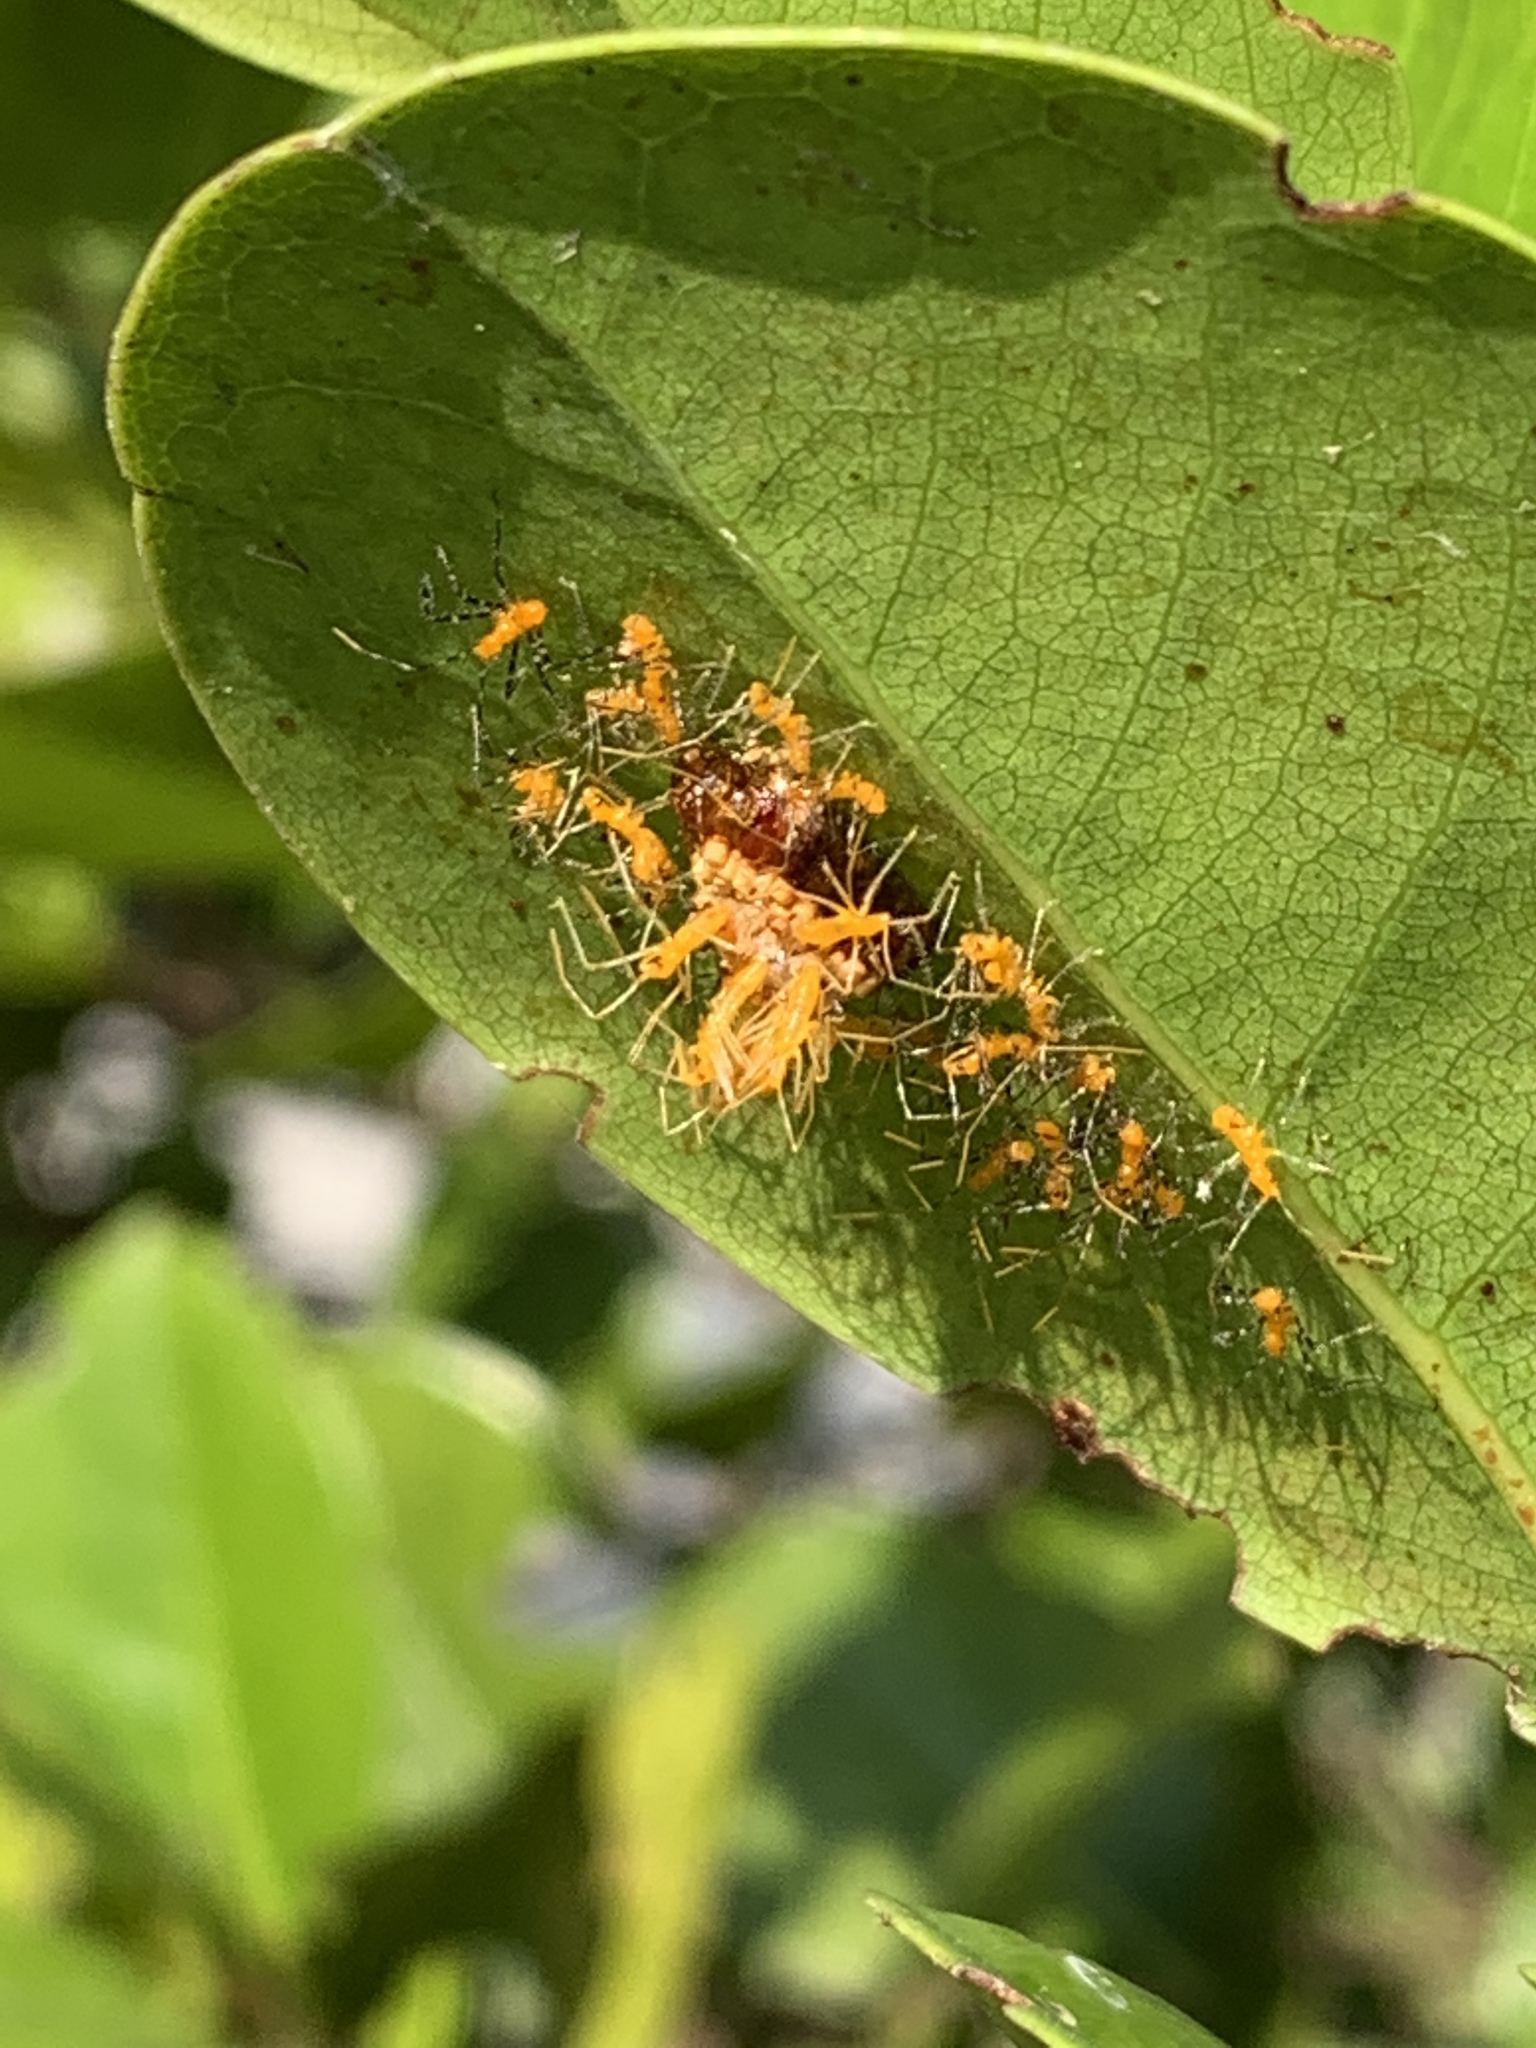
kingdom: Animalia
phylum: Arthropoda
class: Insecta
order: Hemiptera
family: Reduviidae
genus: Zelus
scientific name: Zelus longipes
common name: Milkweed assassin bug
